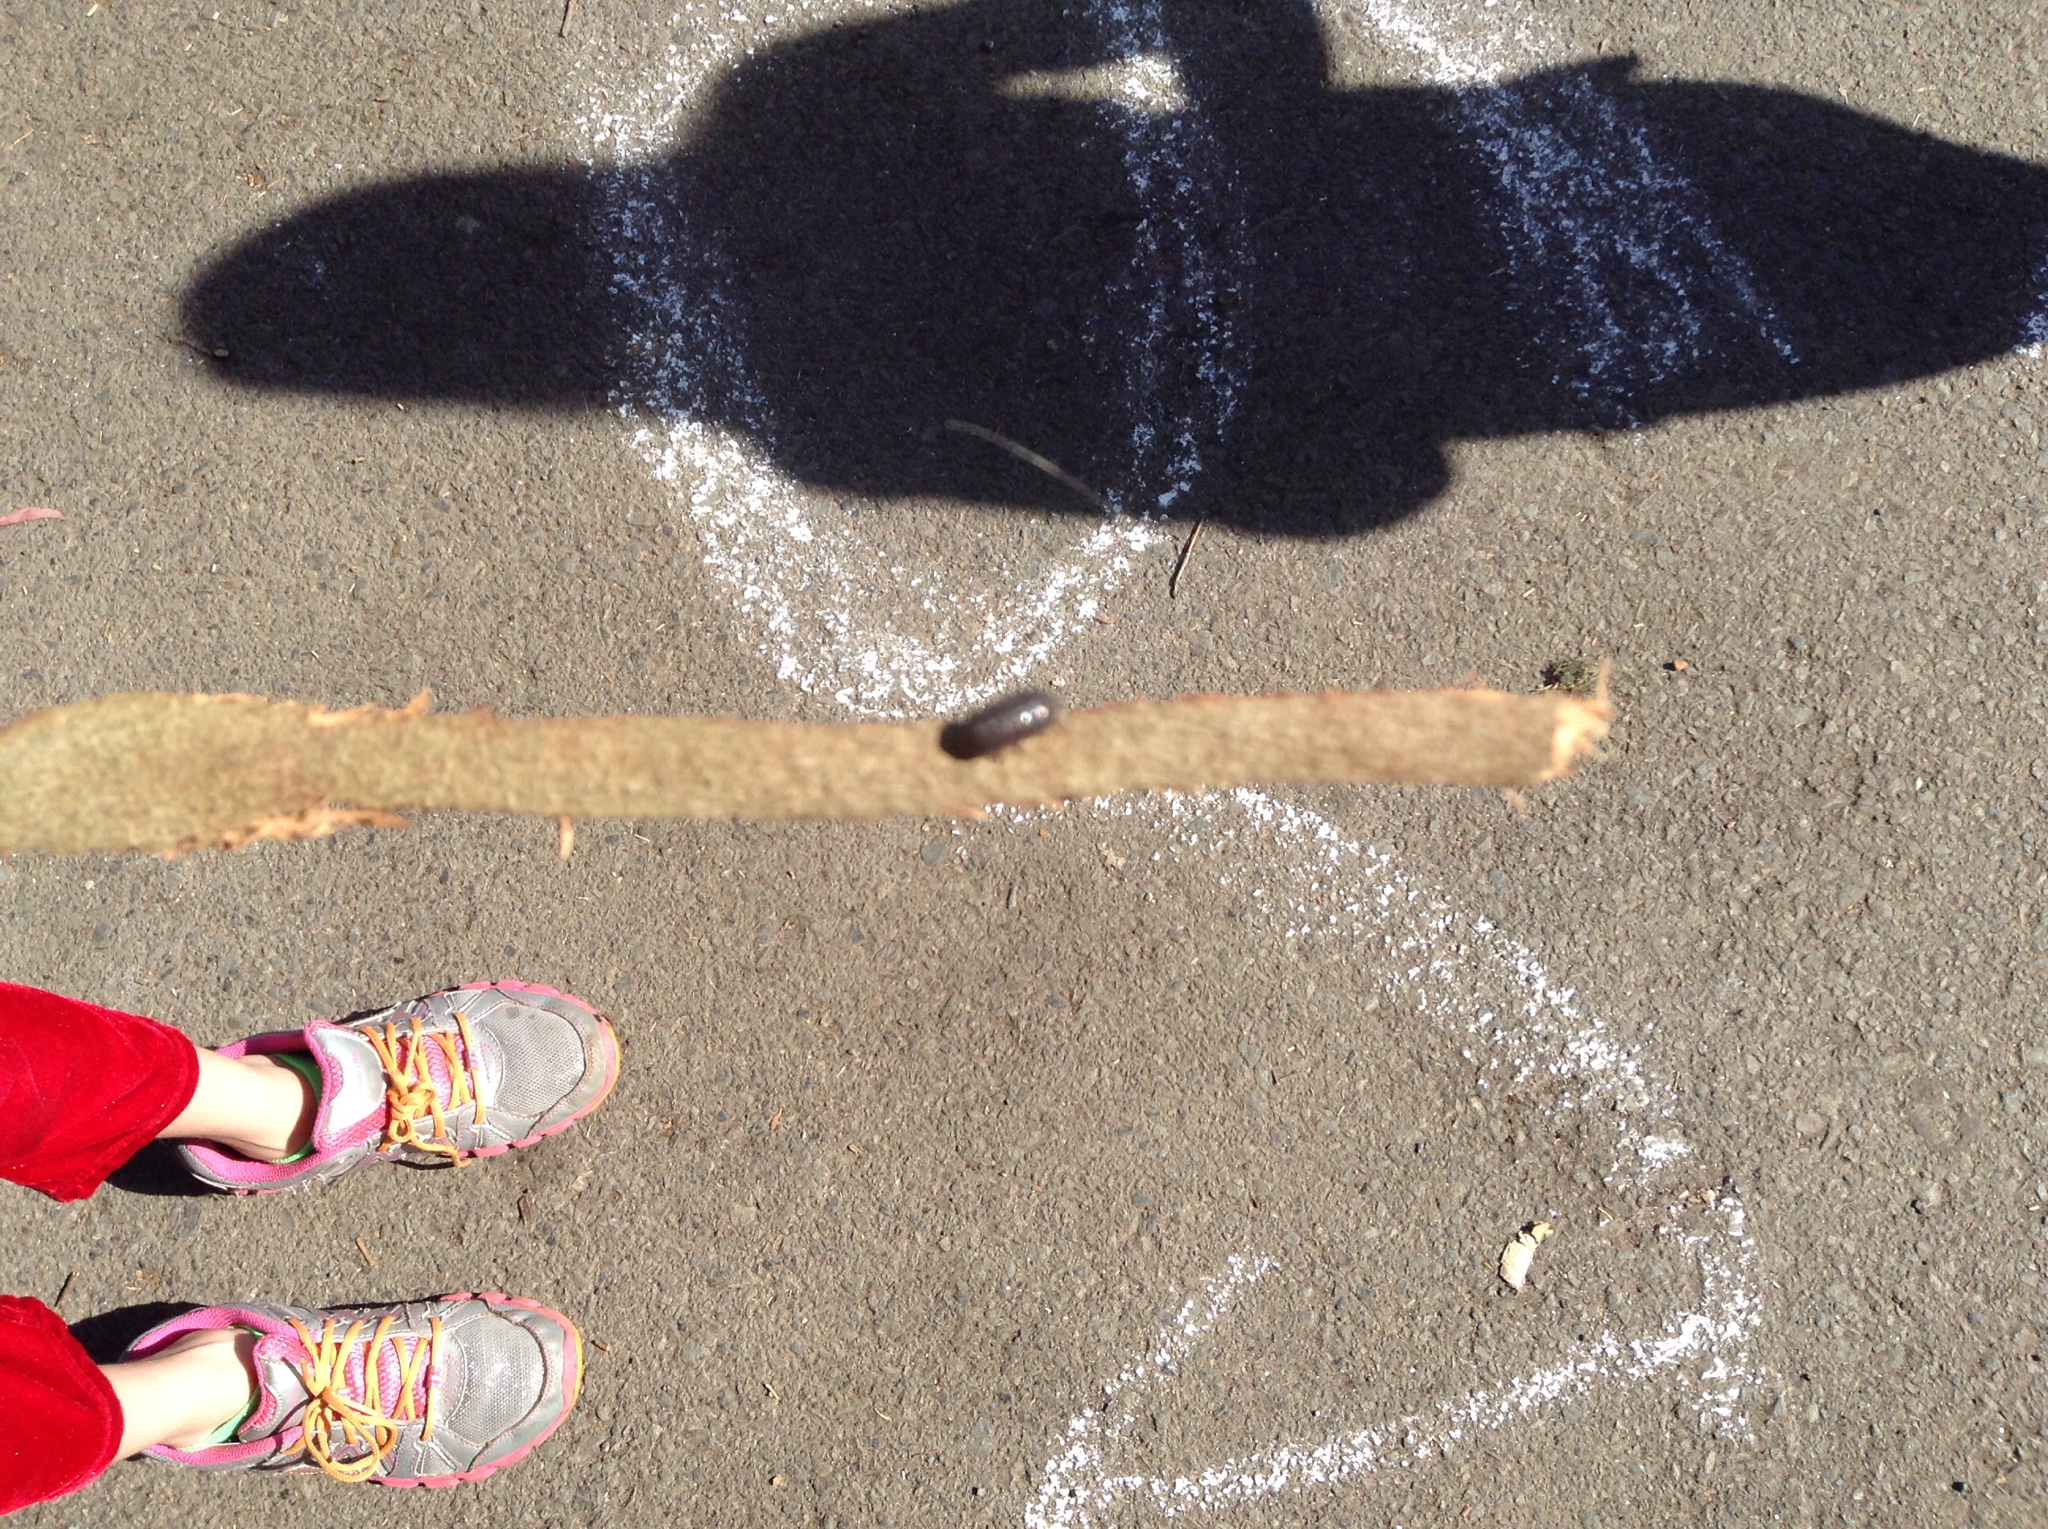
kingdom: Animalia
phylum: Arthropoda
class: Malacostraca
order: Isopoda
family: Armadillidiidae
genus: Armadillidium
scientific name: Armadillidium vulgare
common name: Common pill woodlouse
